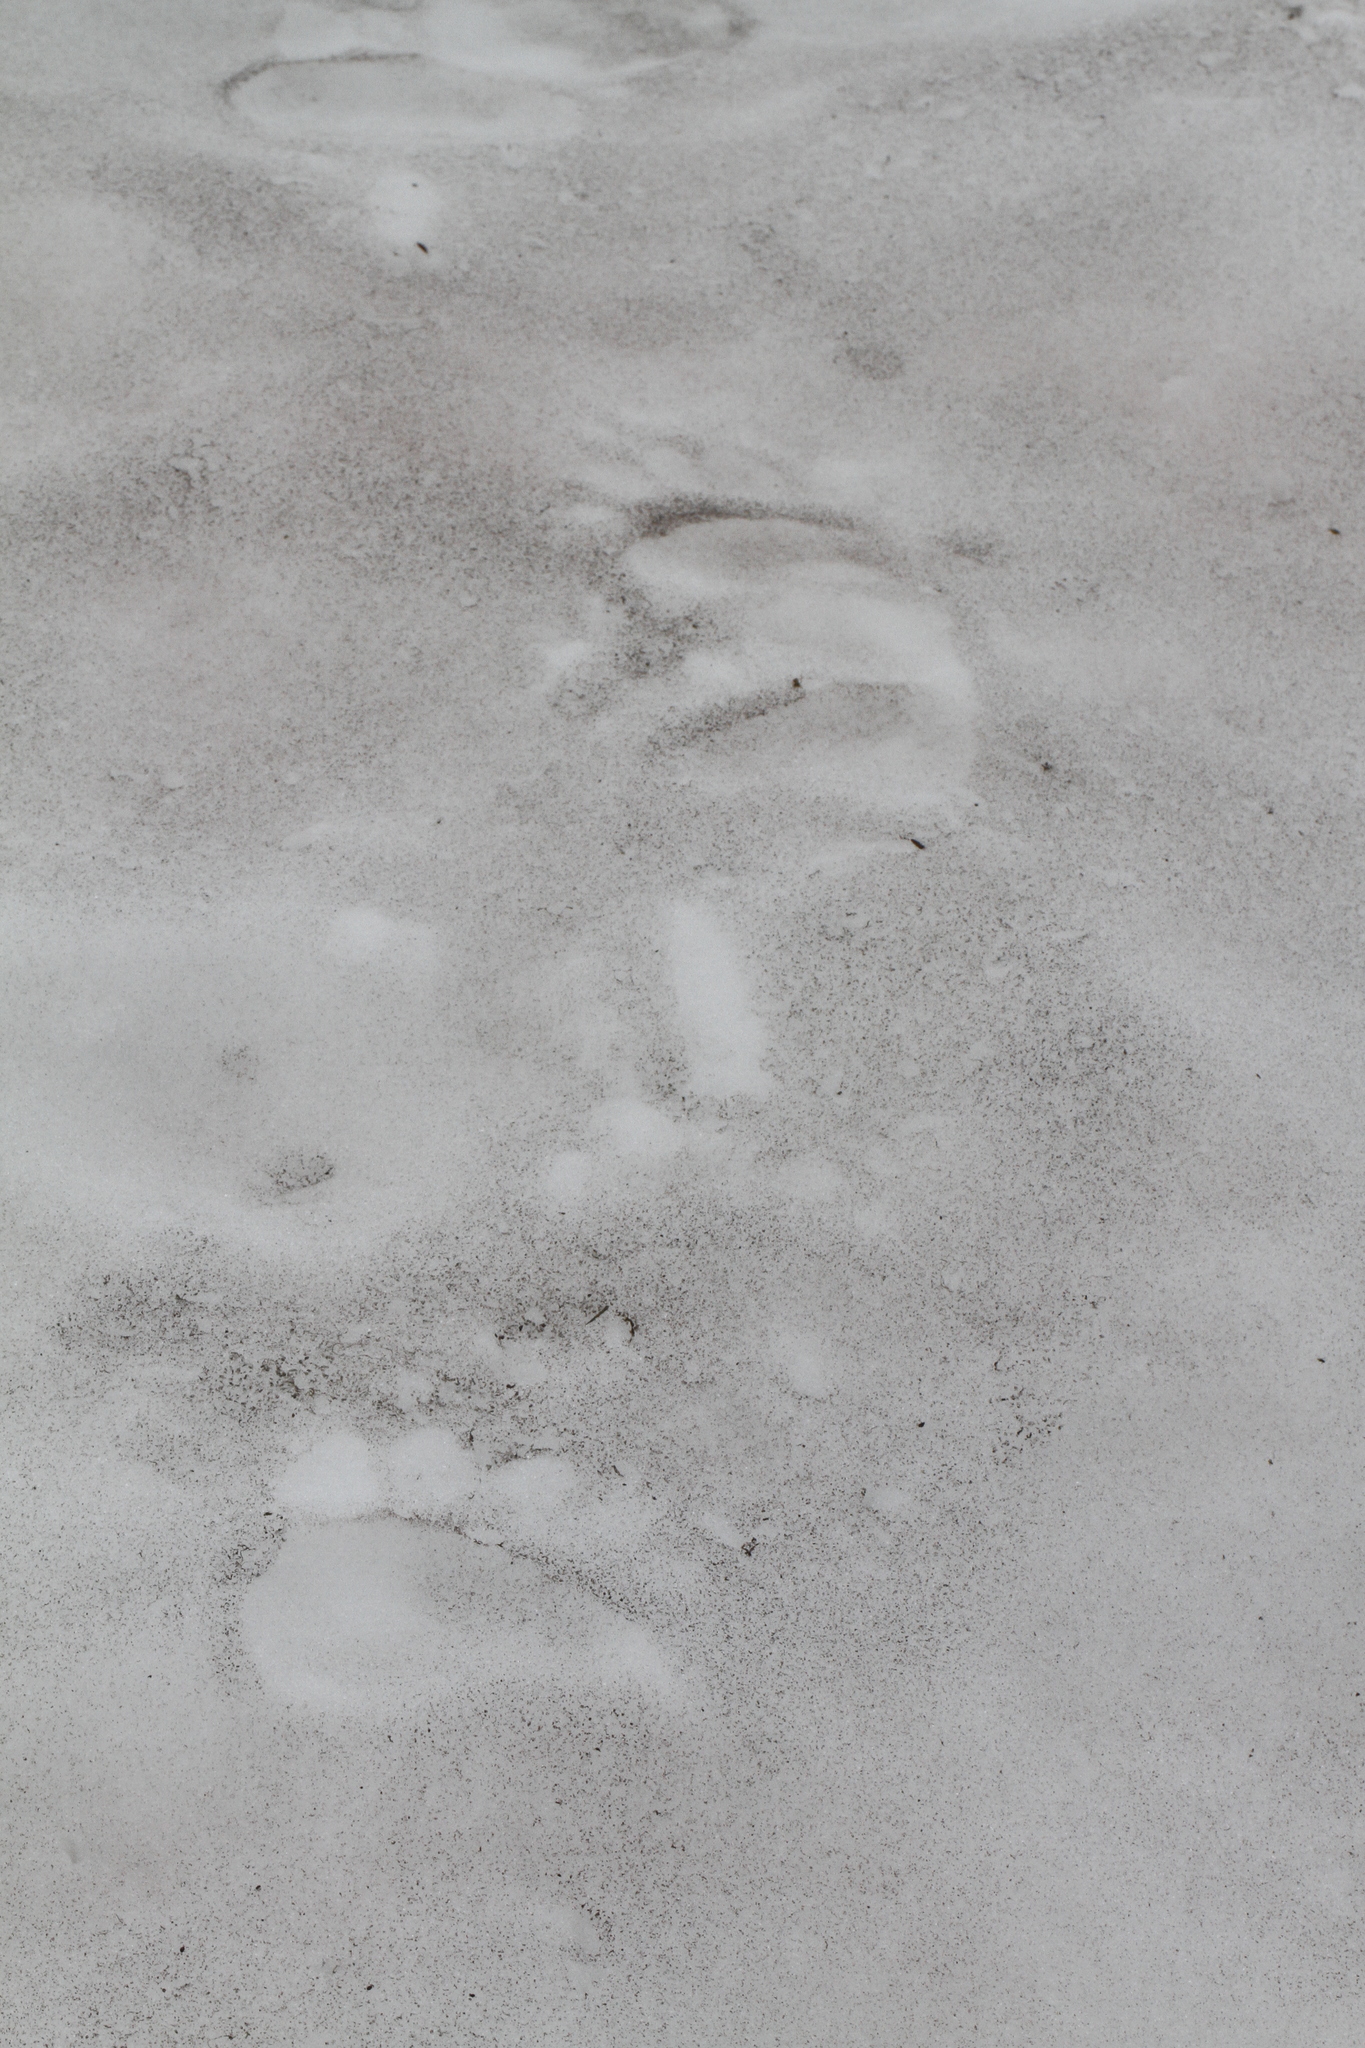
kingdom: Animalia
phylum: Chordata
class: Mammalia
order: Carnivora
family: Ursidae
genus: Ursus
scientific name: Ursus arctos
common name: Brown bear
